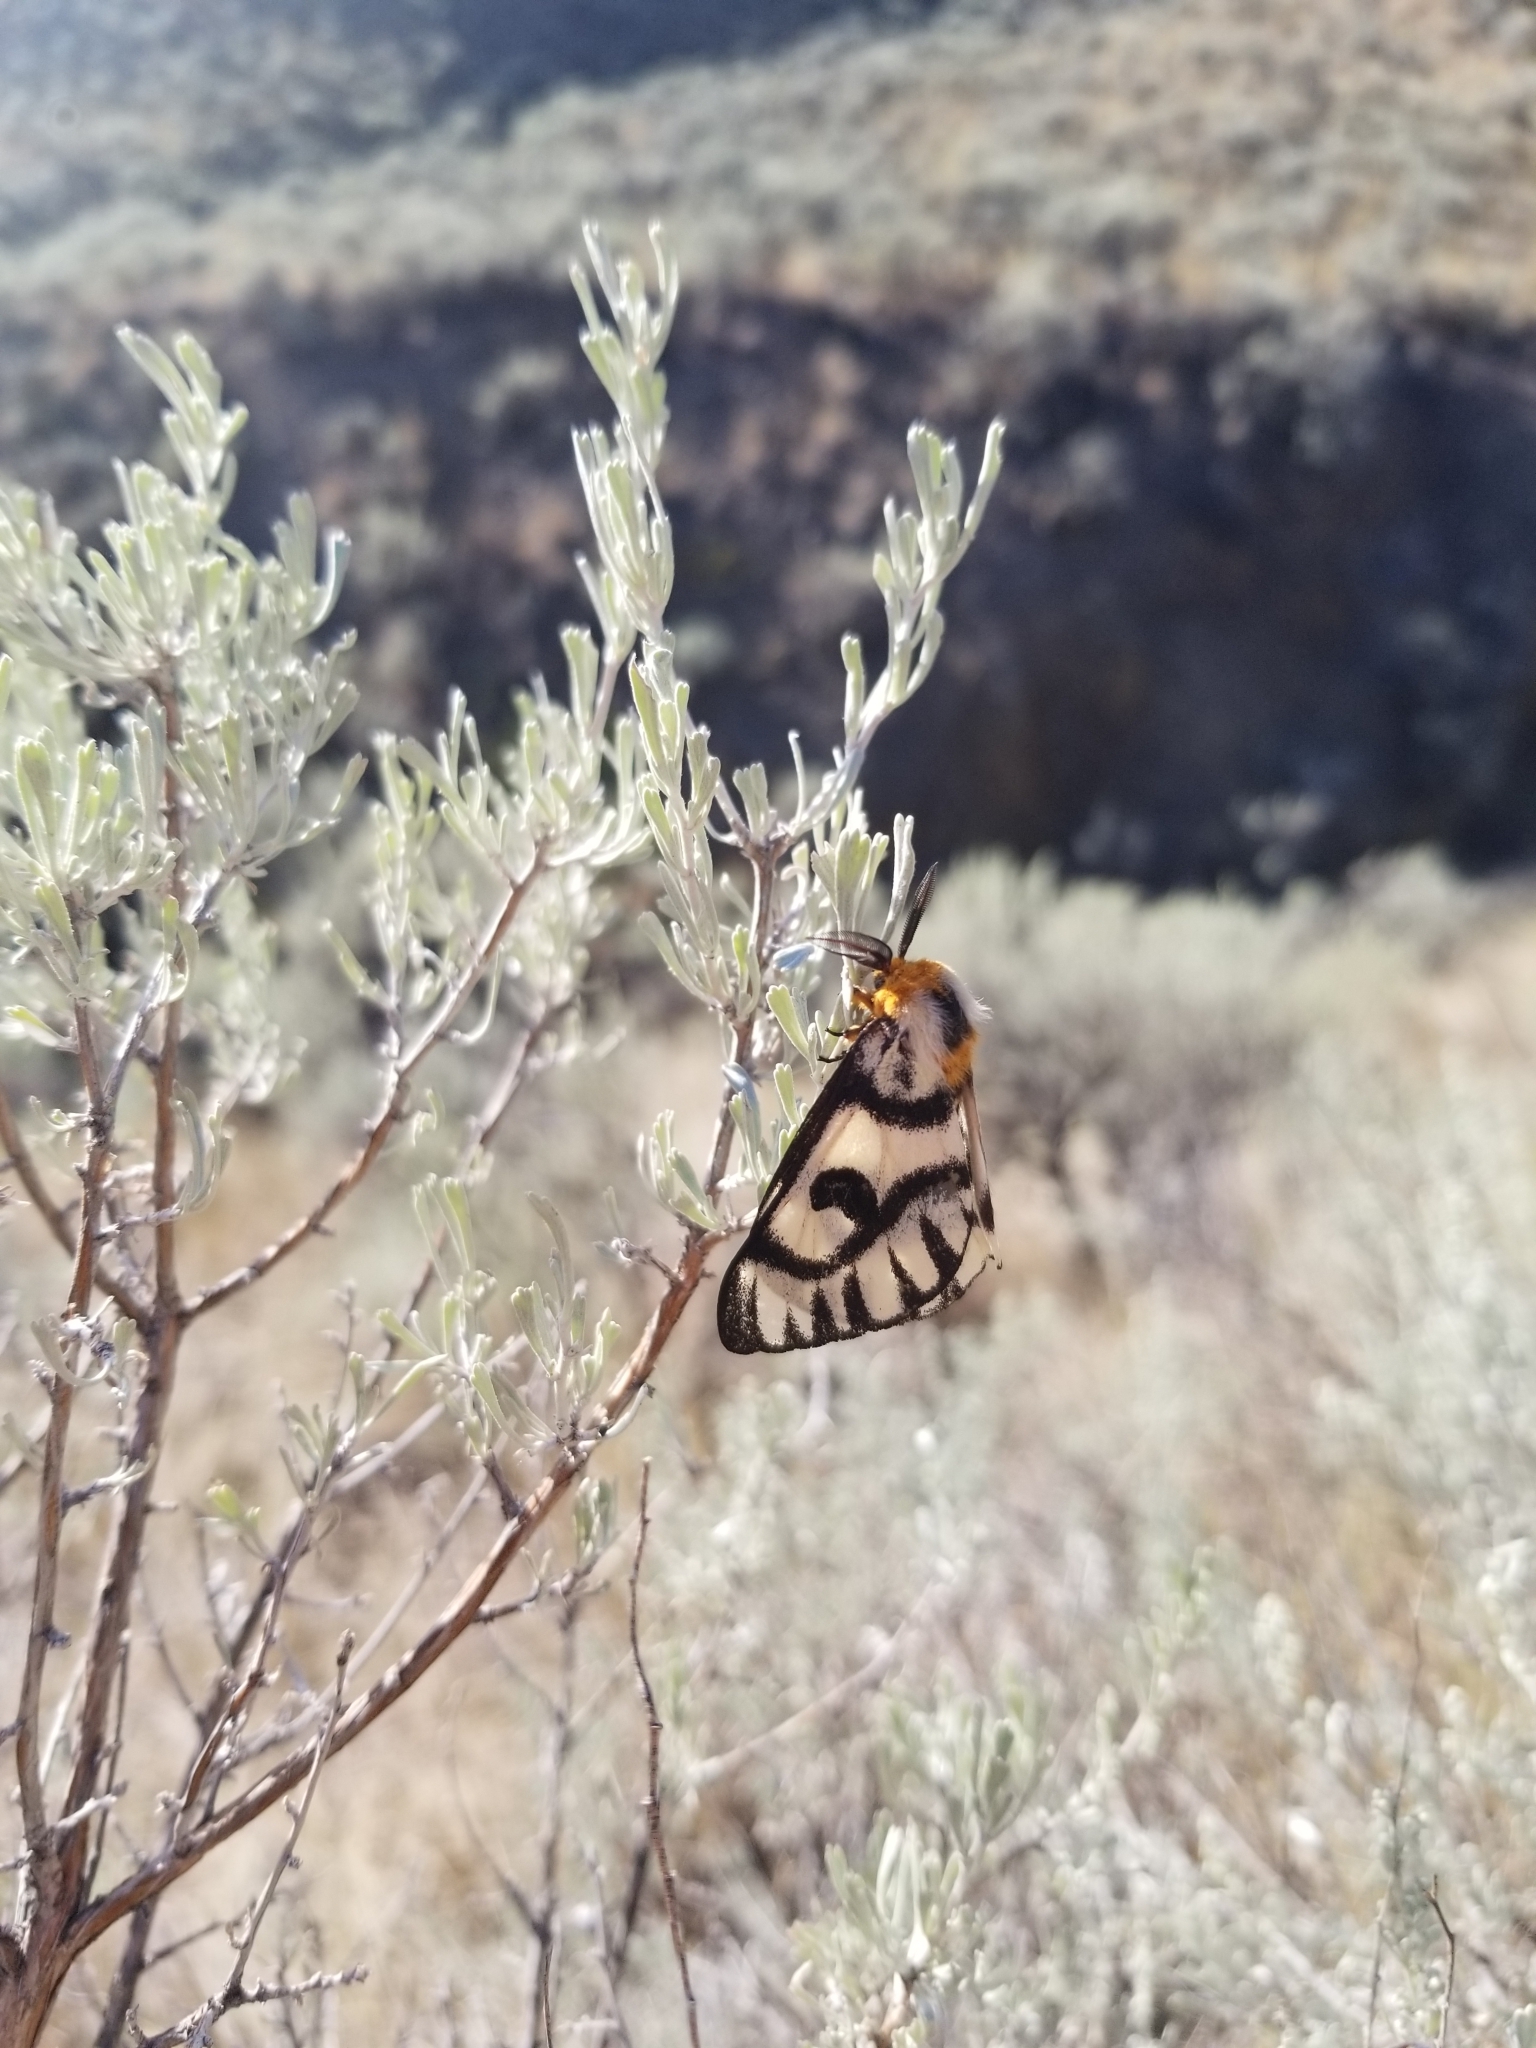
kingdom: Animalia
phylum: Arthropoda
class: Insecta
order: Lepidoptera
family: Saturniidae
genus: Hemileuca
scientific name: Hemileuca hera
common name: Hera sheepmoth
